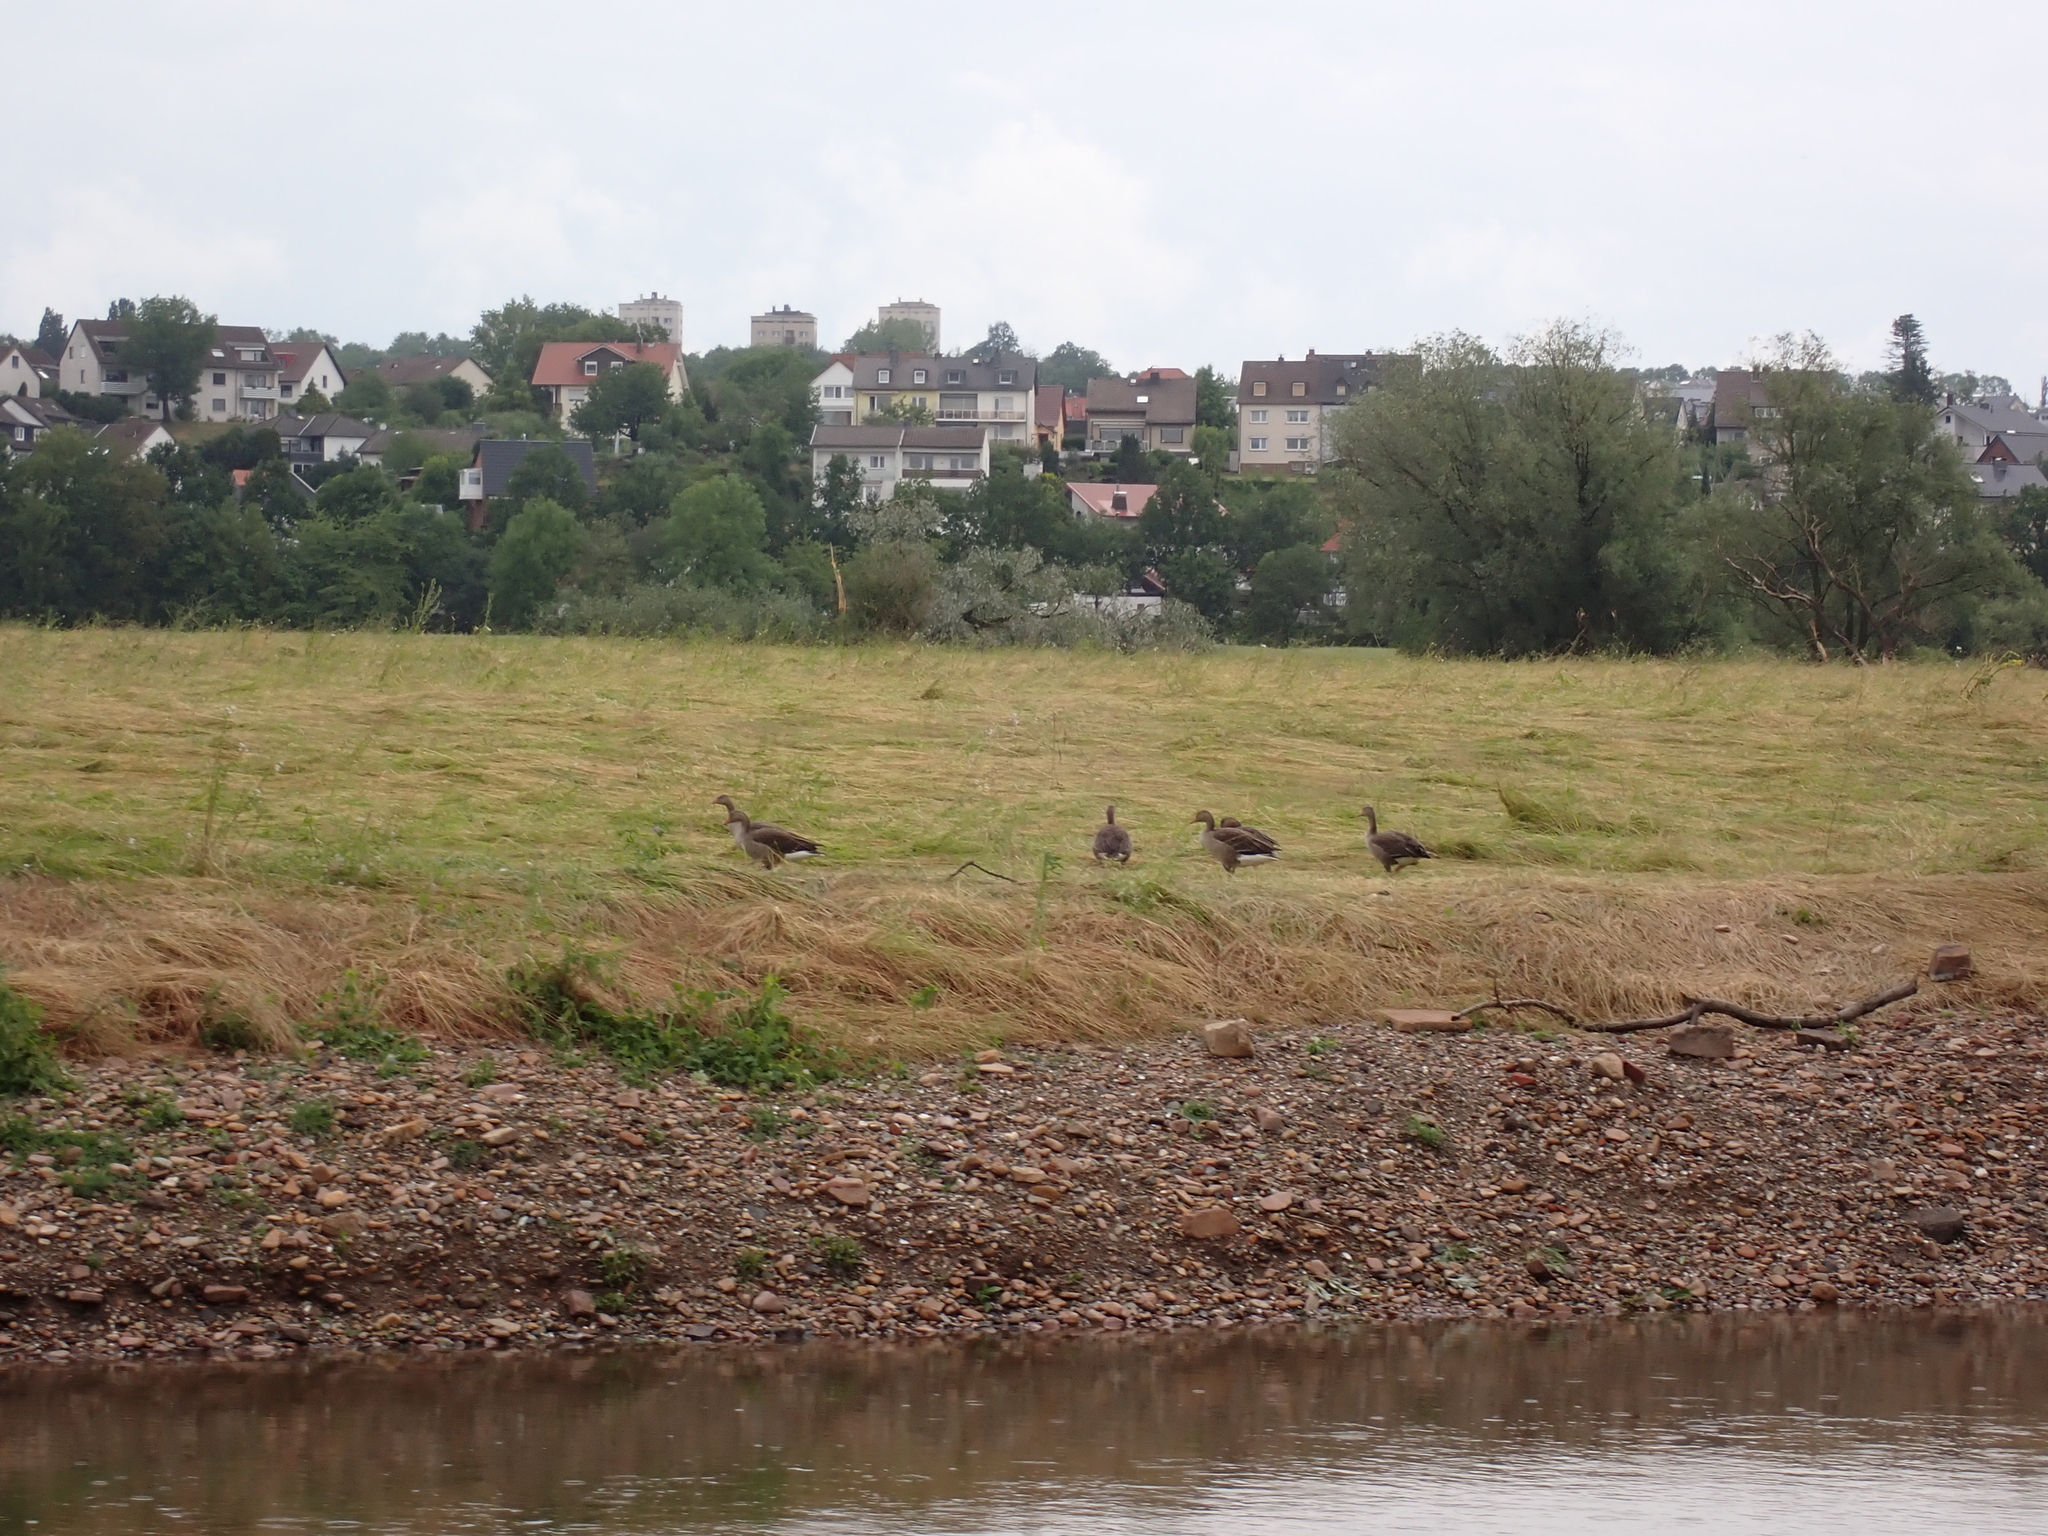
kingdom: Animalia
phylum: Chordata
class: Aves
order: Anseriformes
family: Anatidae
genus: Anser
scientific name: Anser anser
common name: Greylag goose
